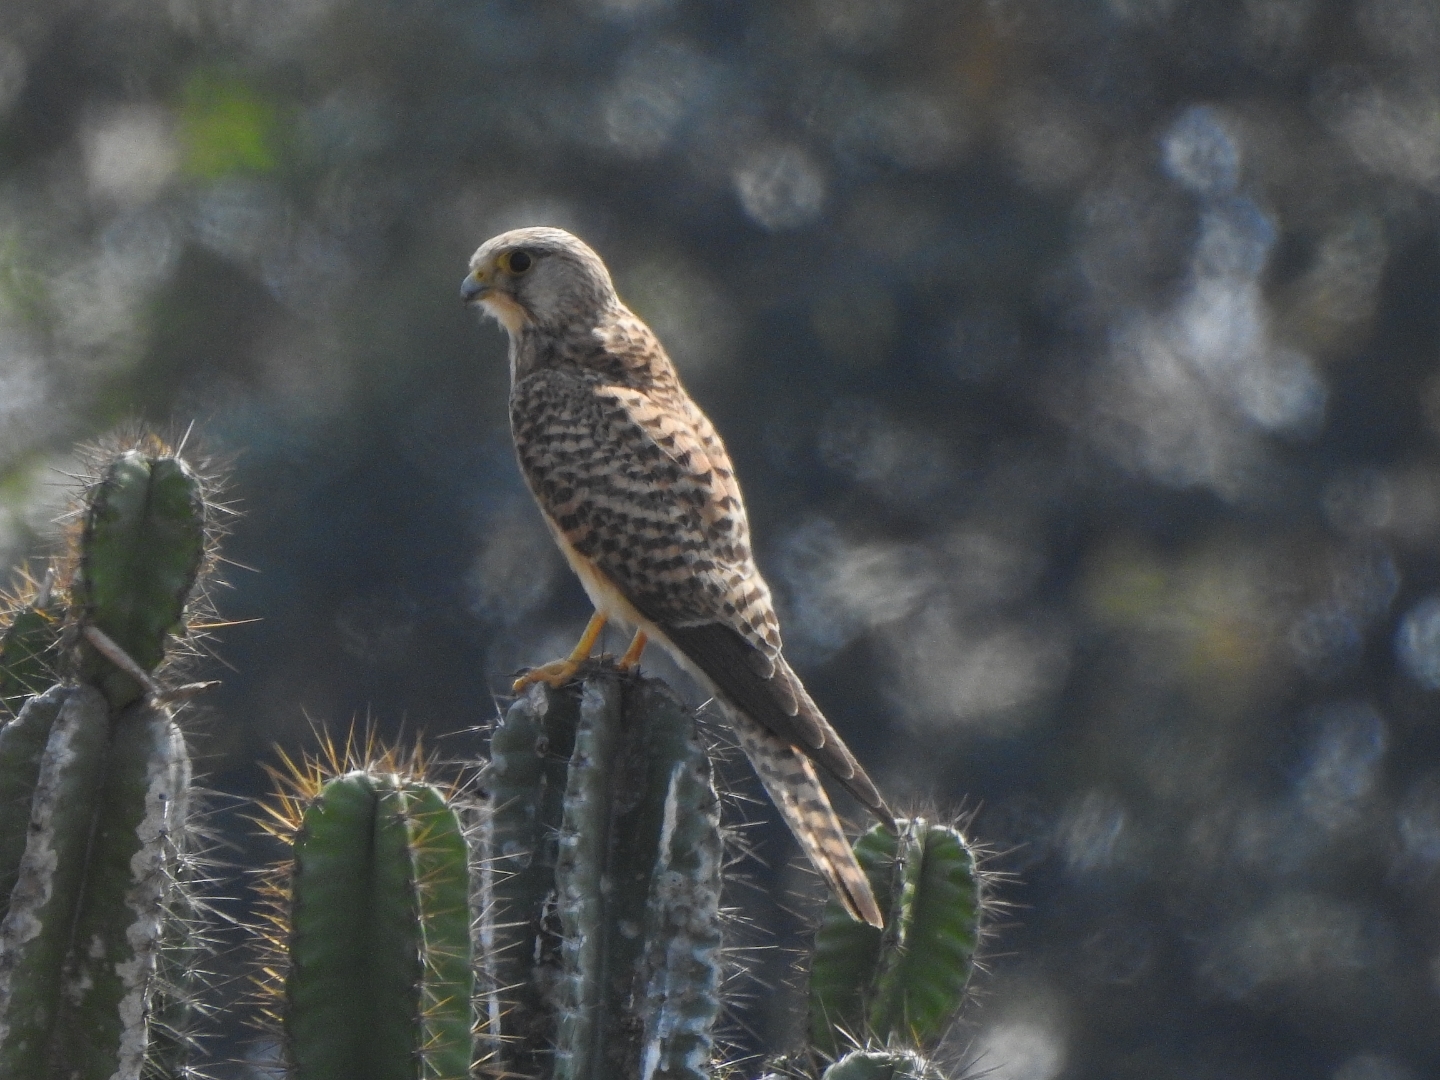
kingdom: Animalia
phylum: Chordata
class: Aves
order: Falconiformes
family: Falconidae
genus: Falco
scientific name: Falco tinnunculus
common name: Common kestrel
